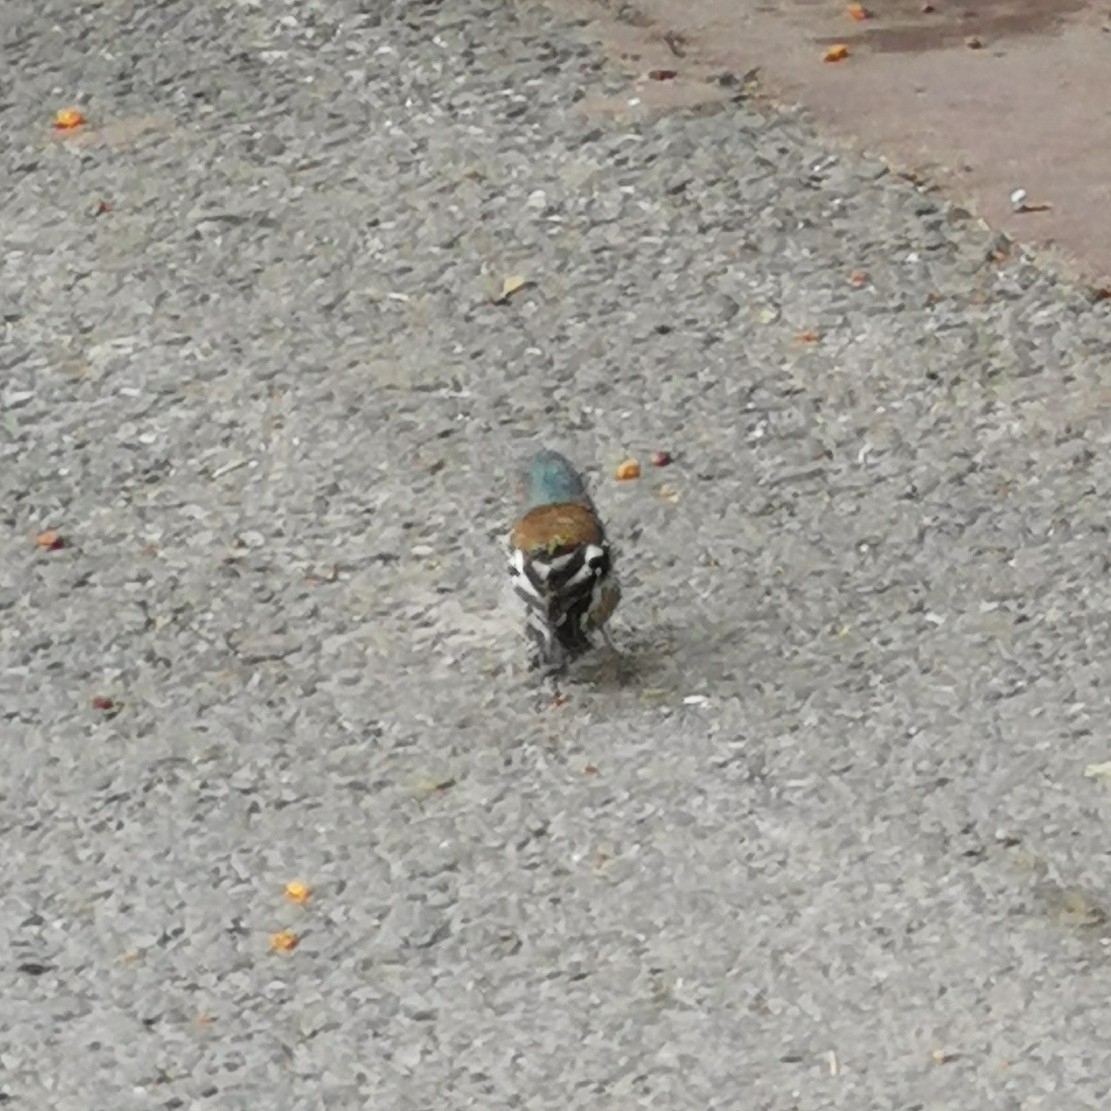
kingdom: Animalia
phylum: Chordata
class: Aves
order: Passeriformes
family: Fringillidae
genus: Fringilla
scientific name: Fringilla coelebs
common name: Common chaffinch
